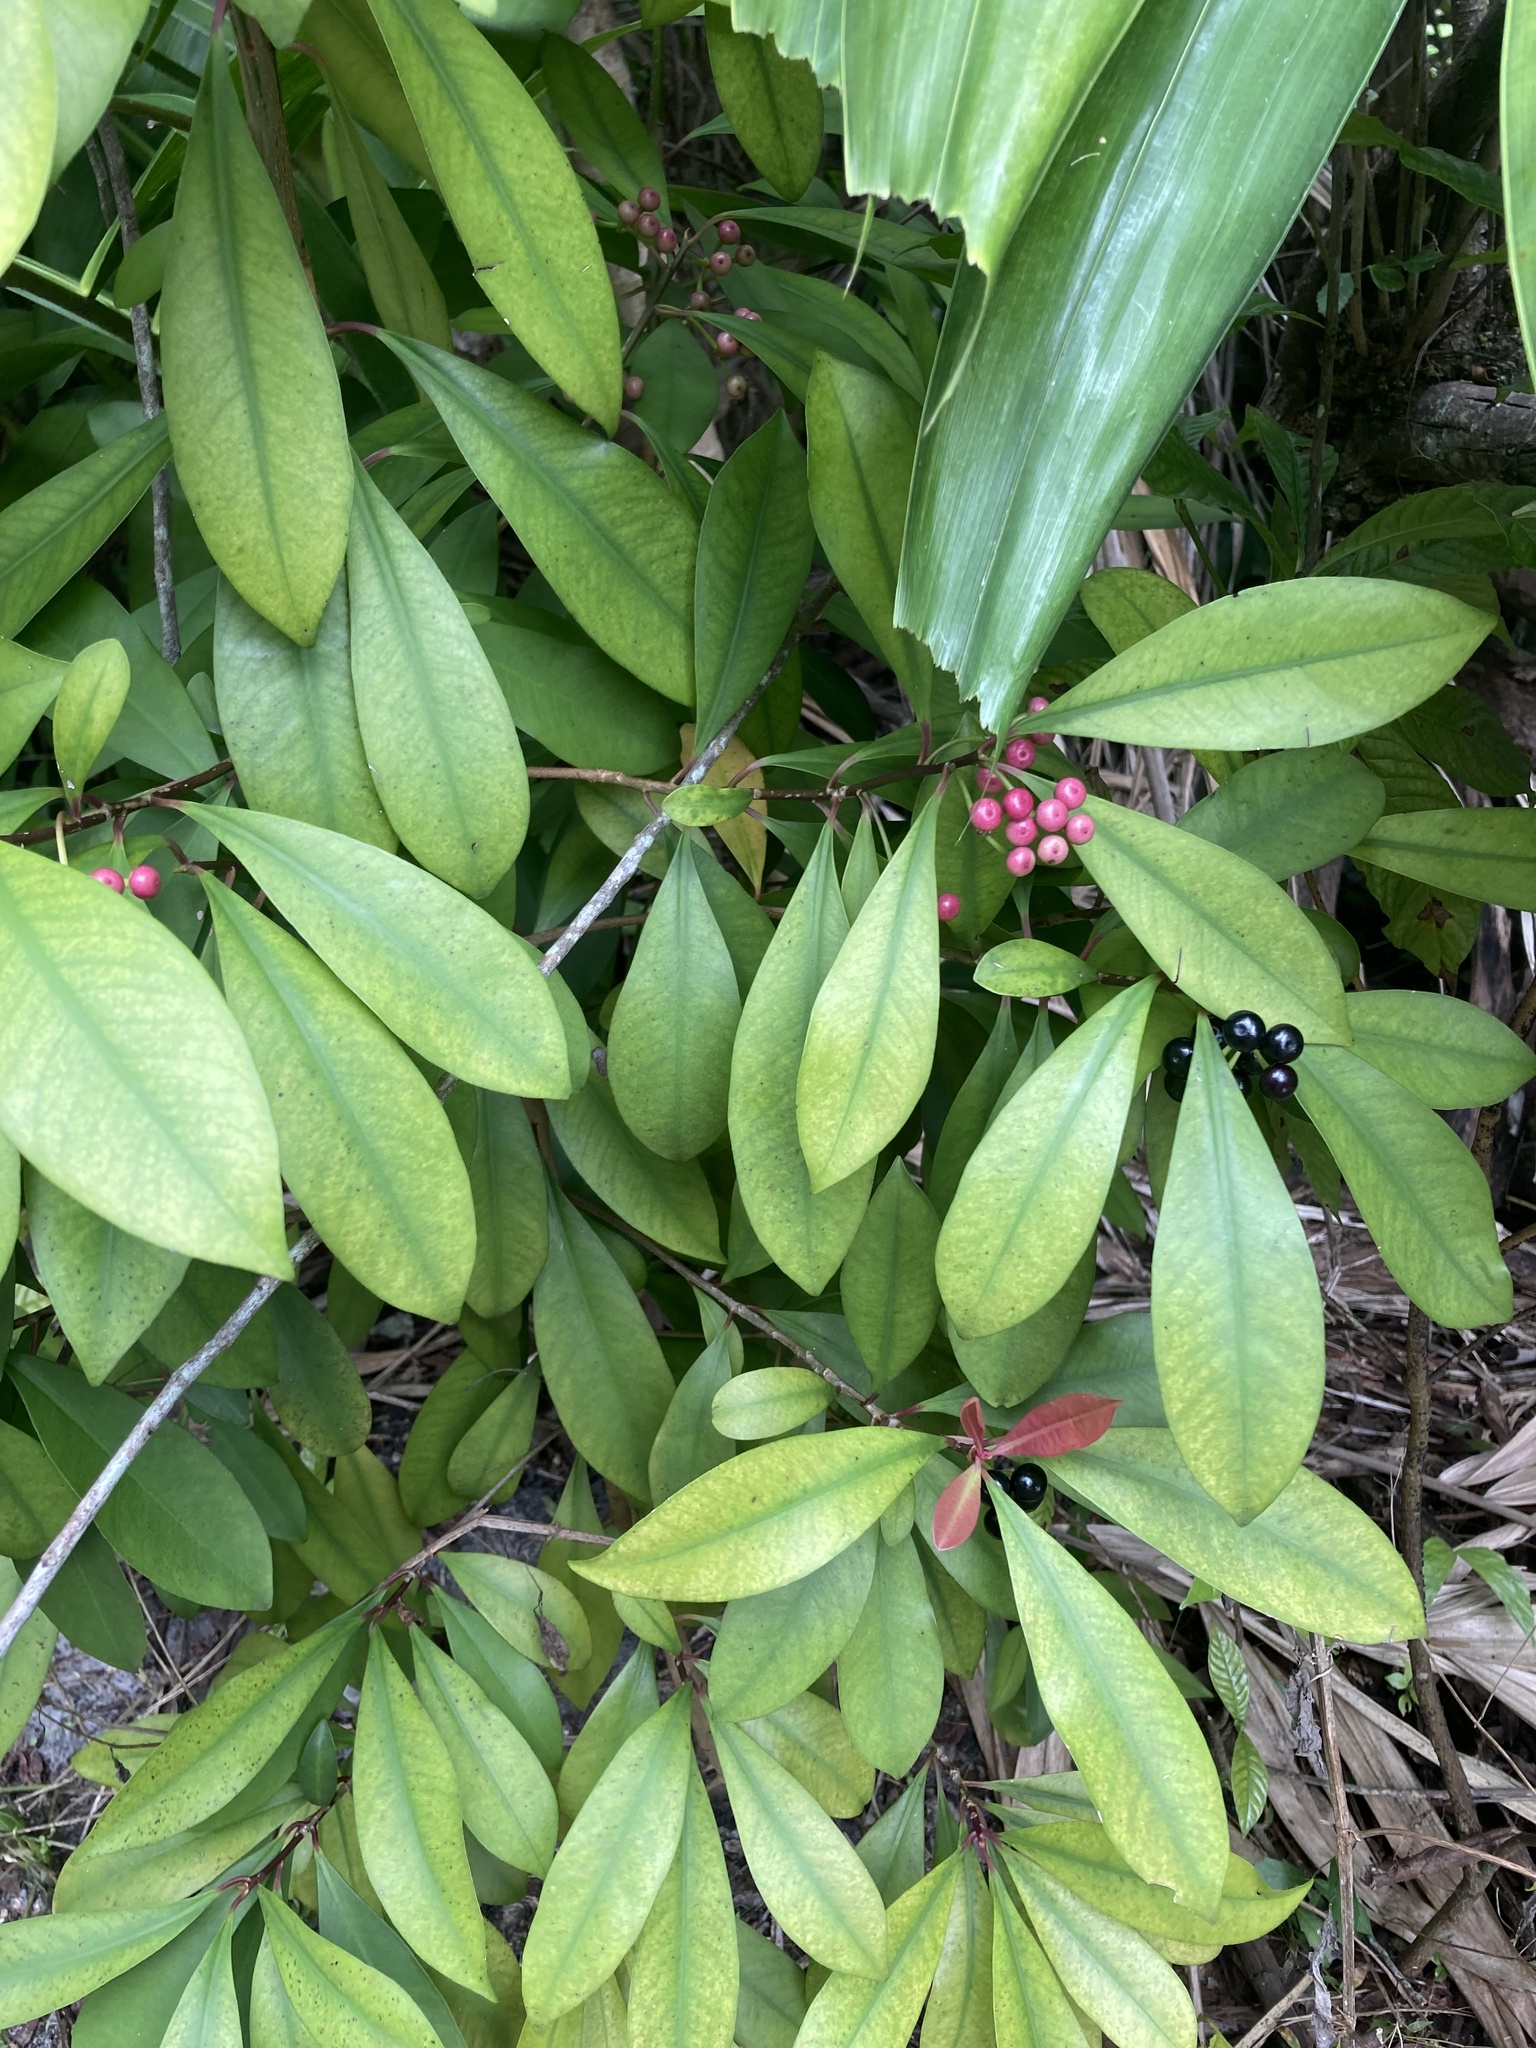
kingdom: Plantae
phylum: Tracheophyta
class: Magnoliopsida
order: Ericales
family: Primulaceae
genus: Ardisia
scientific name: Ardisia elliptica
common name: Shoebutton
